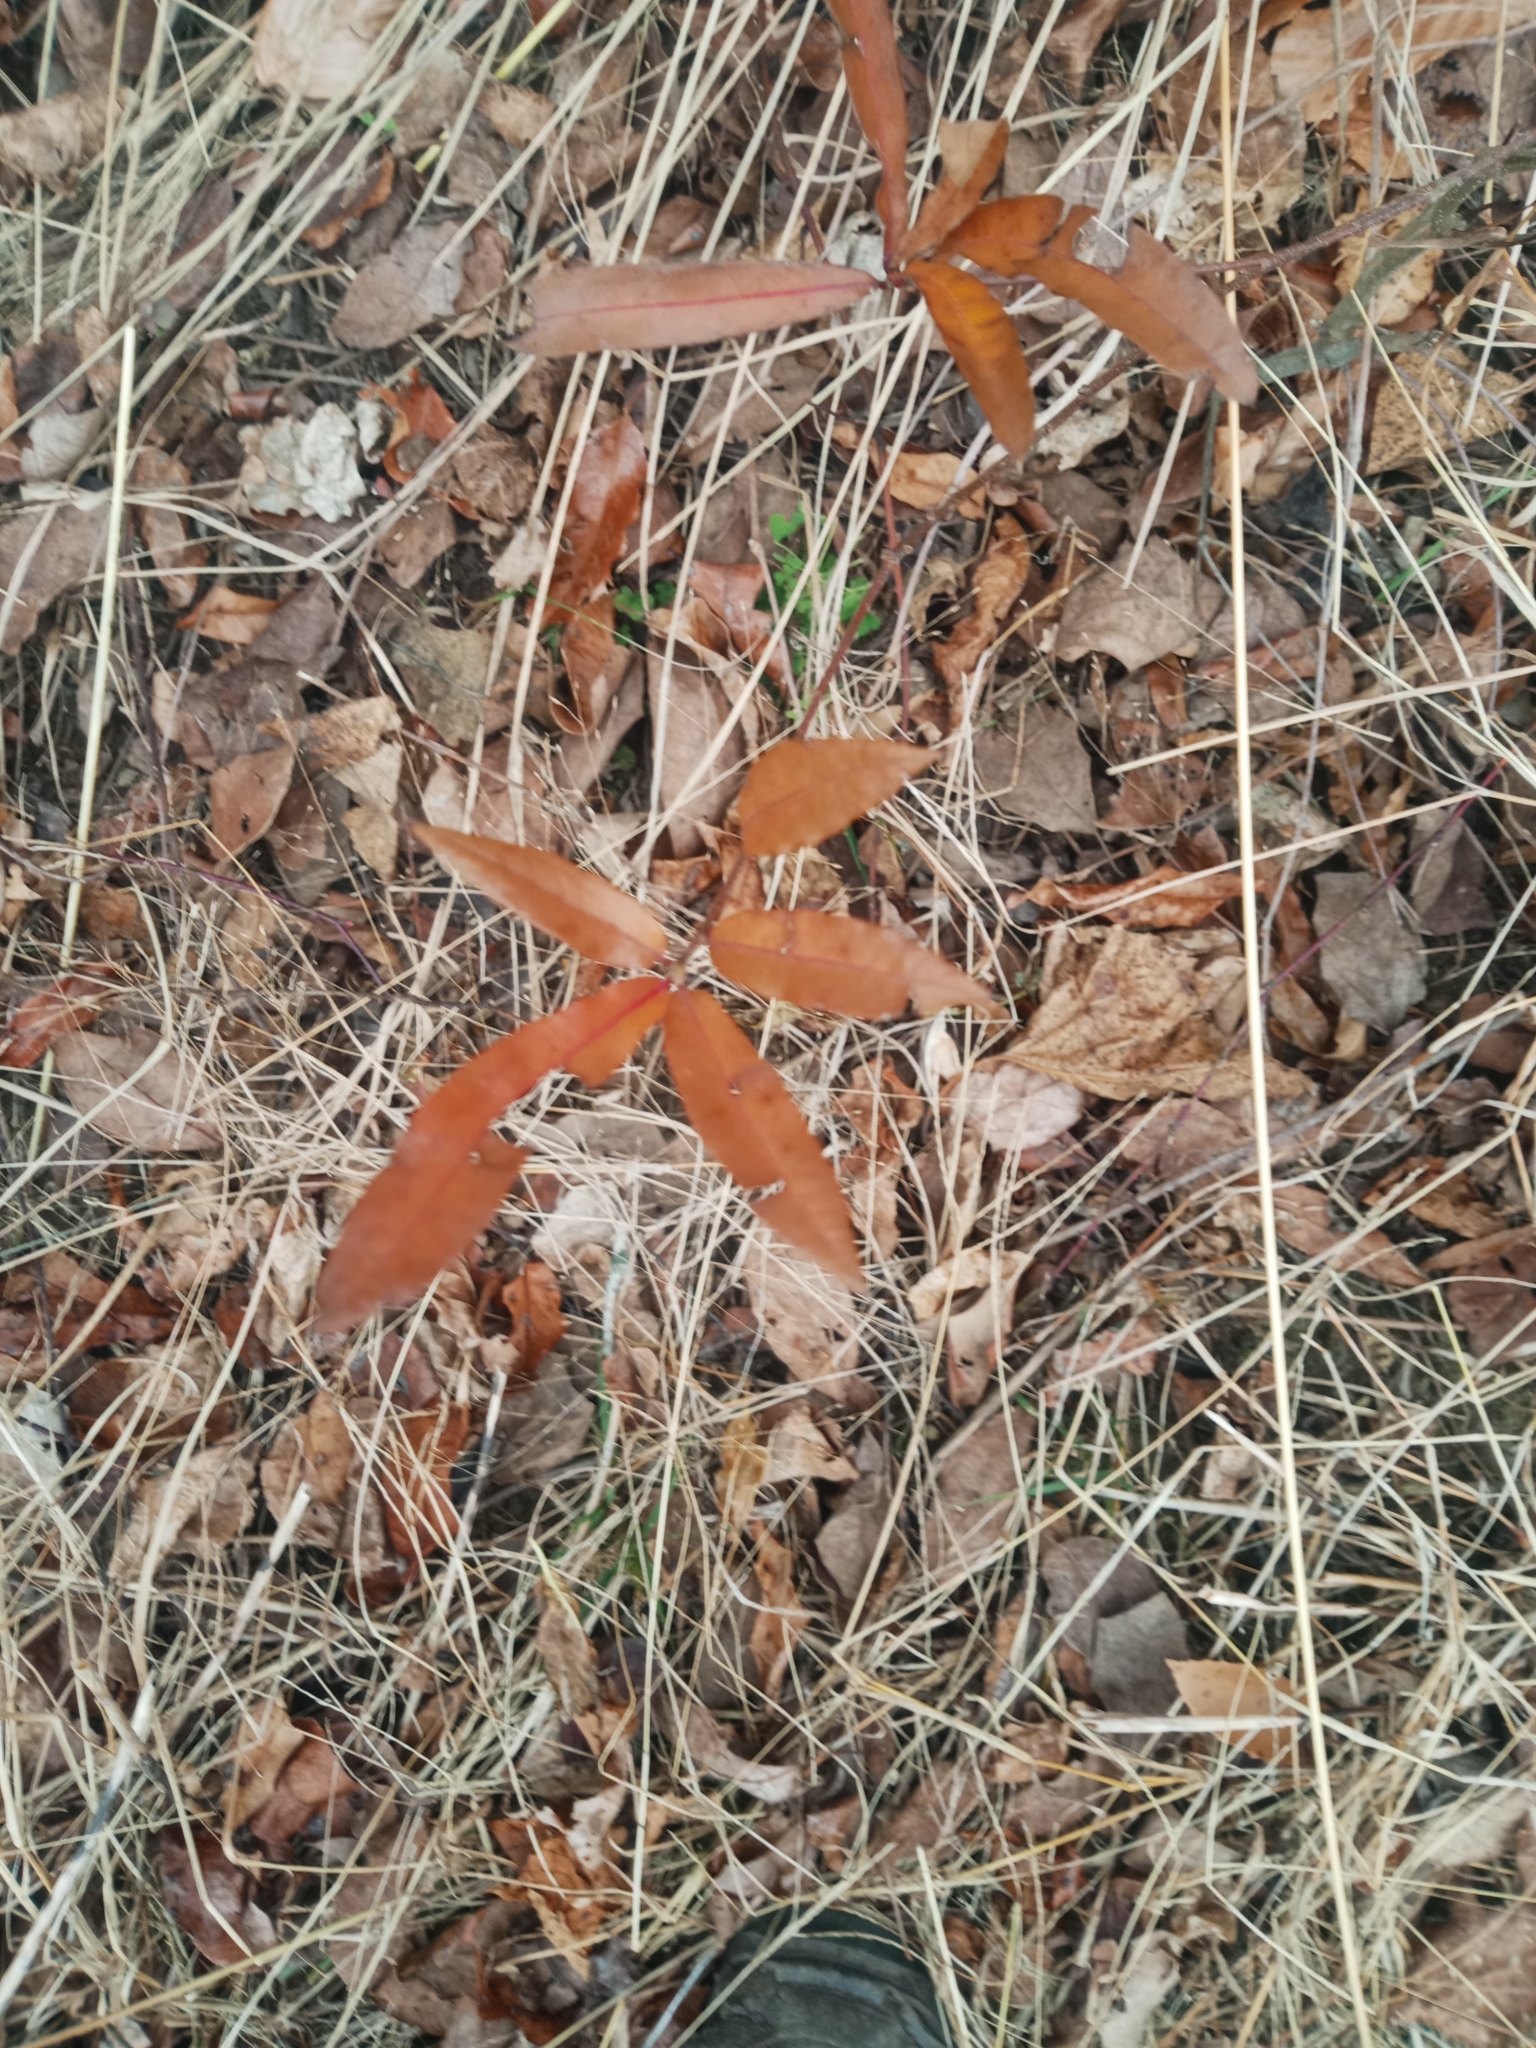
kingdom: Plantae
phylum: Tracheophyta
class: Magnoliopsida
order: Fagales
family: Fagaceae
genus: Quercus
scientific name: Quercus phellos
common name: Willow oak
